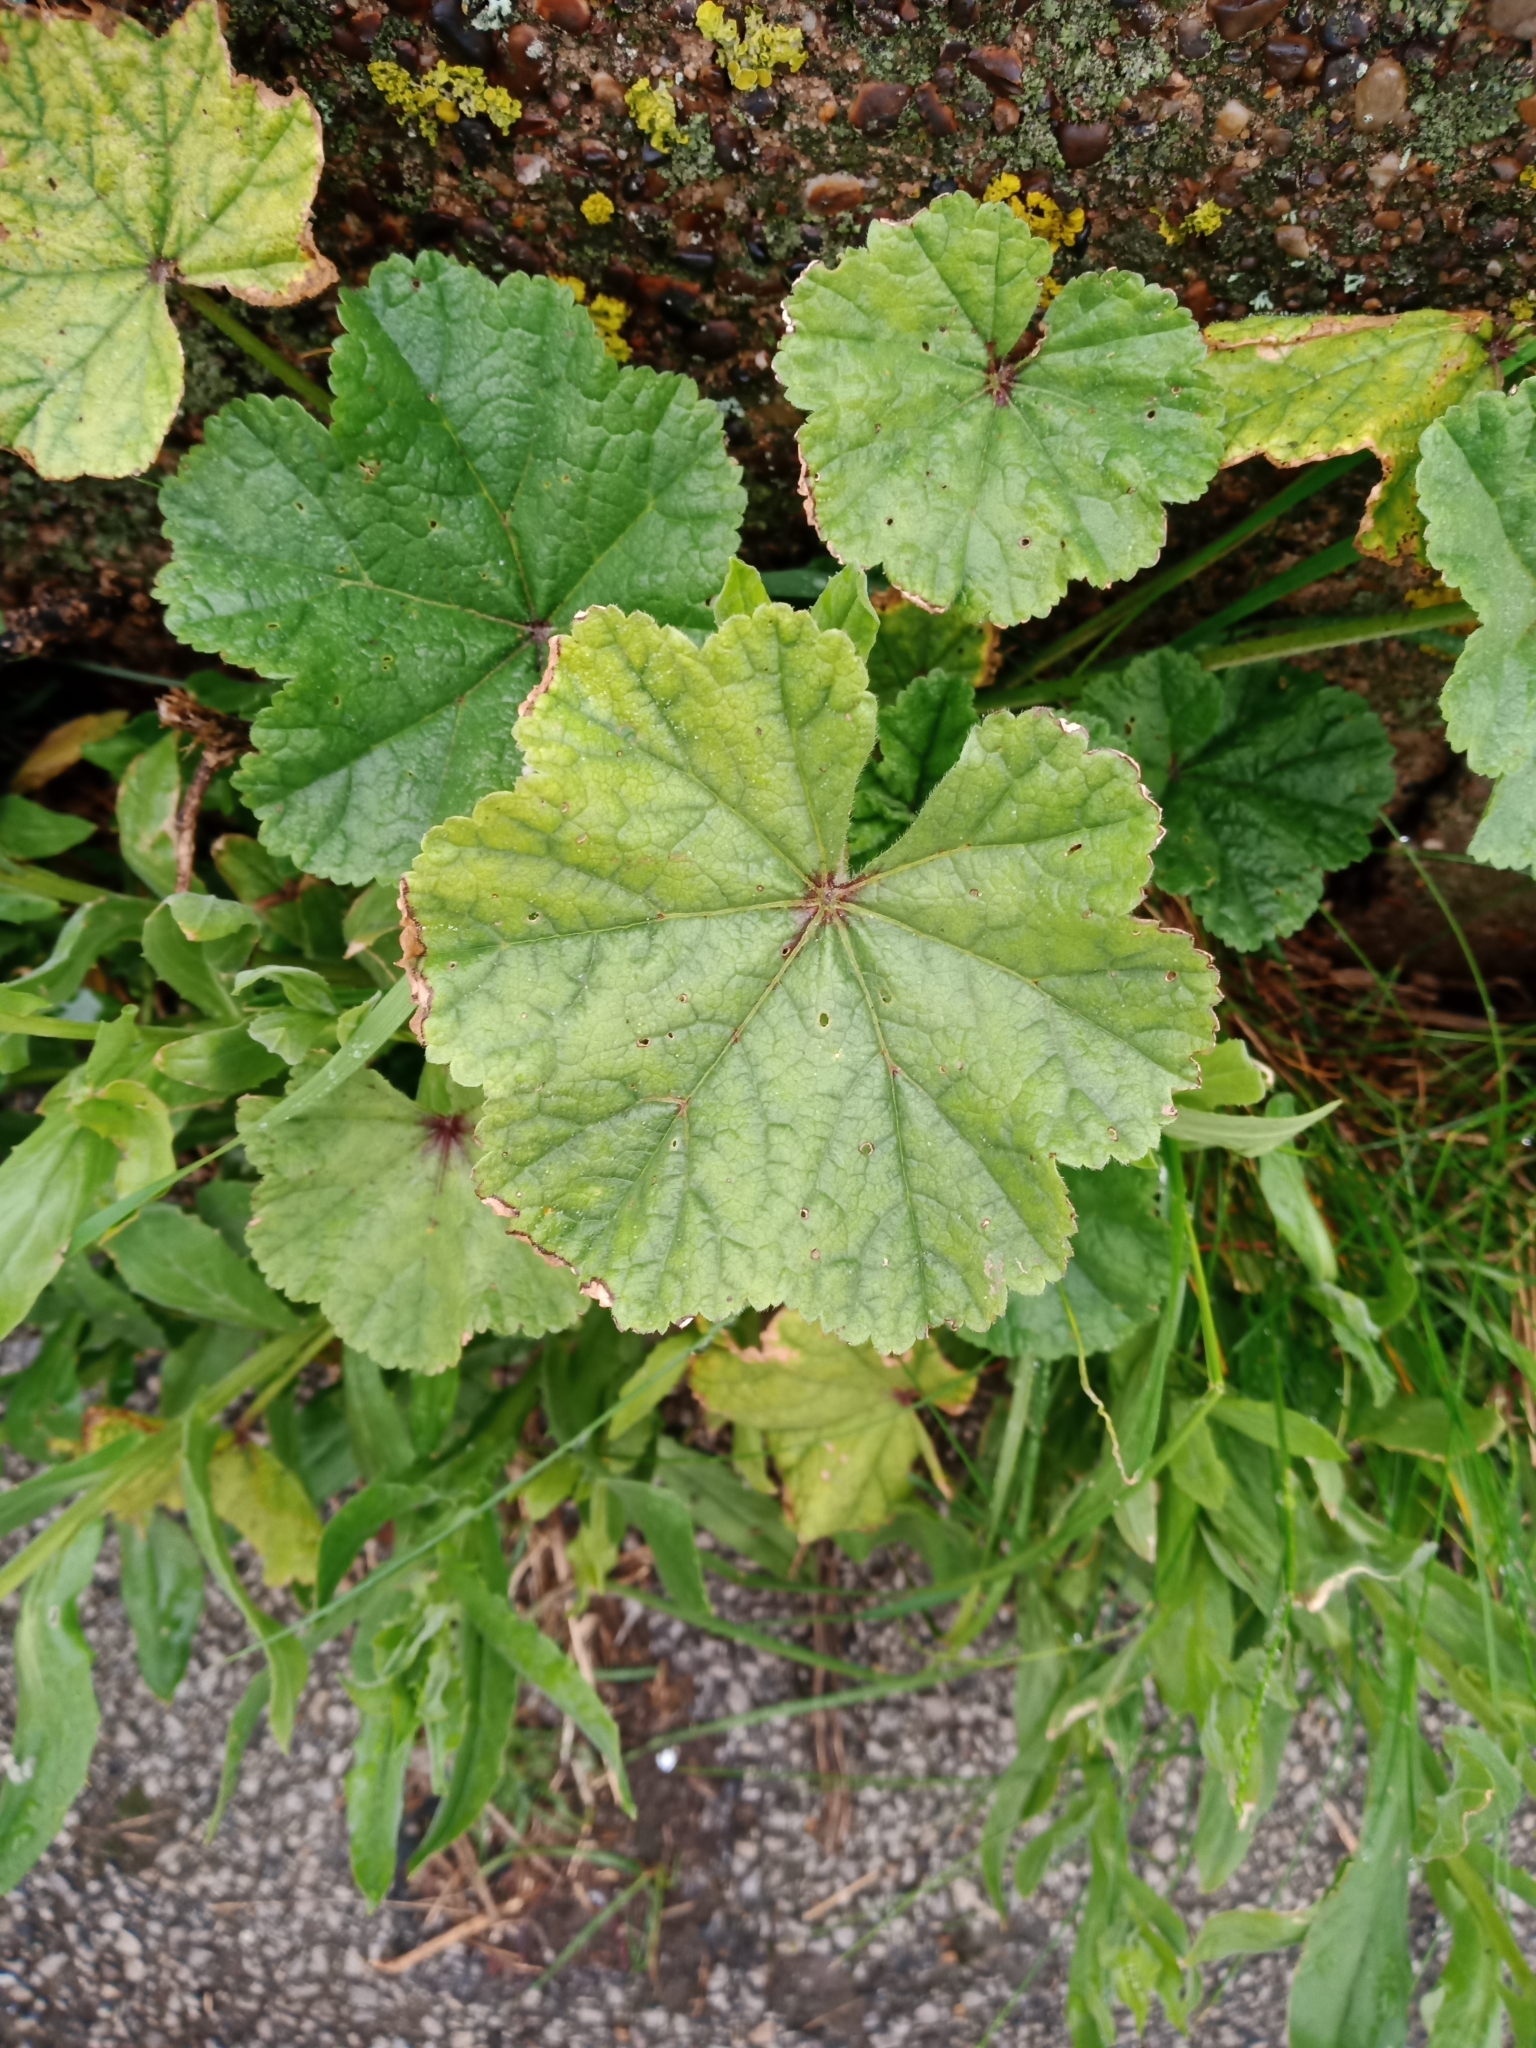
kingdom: Plantae
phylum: Tracheophyta
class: Magnoliopsida
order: Malvales
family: Malvaceae
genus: Malva
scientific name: Malva sylvestris
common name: Common mallow
